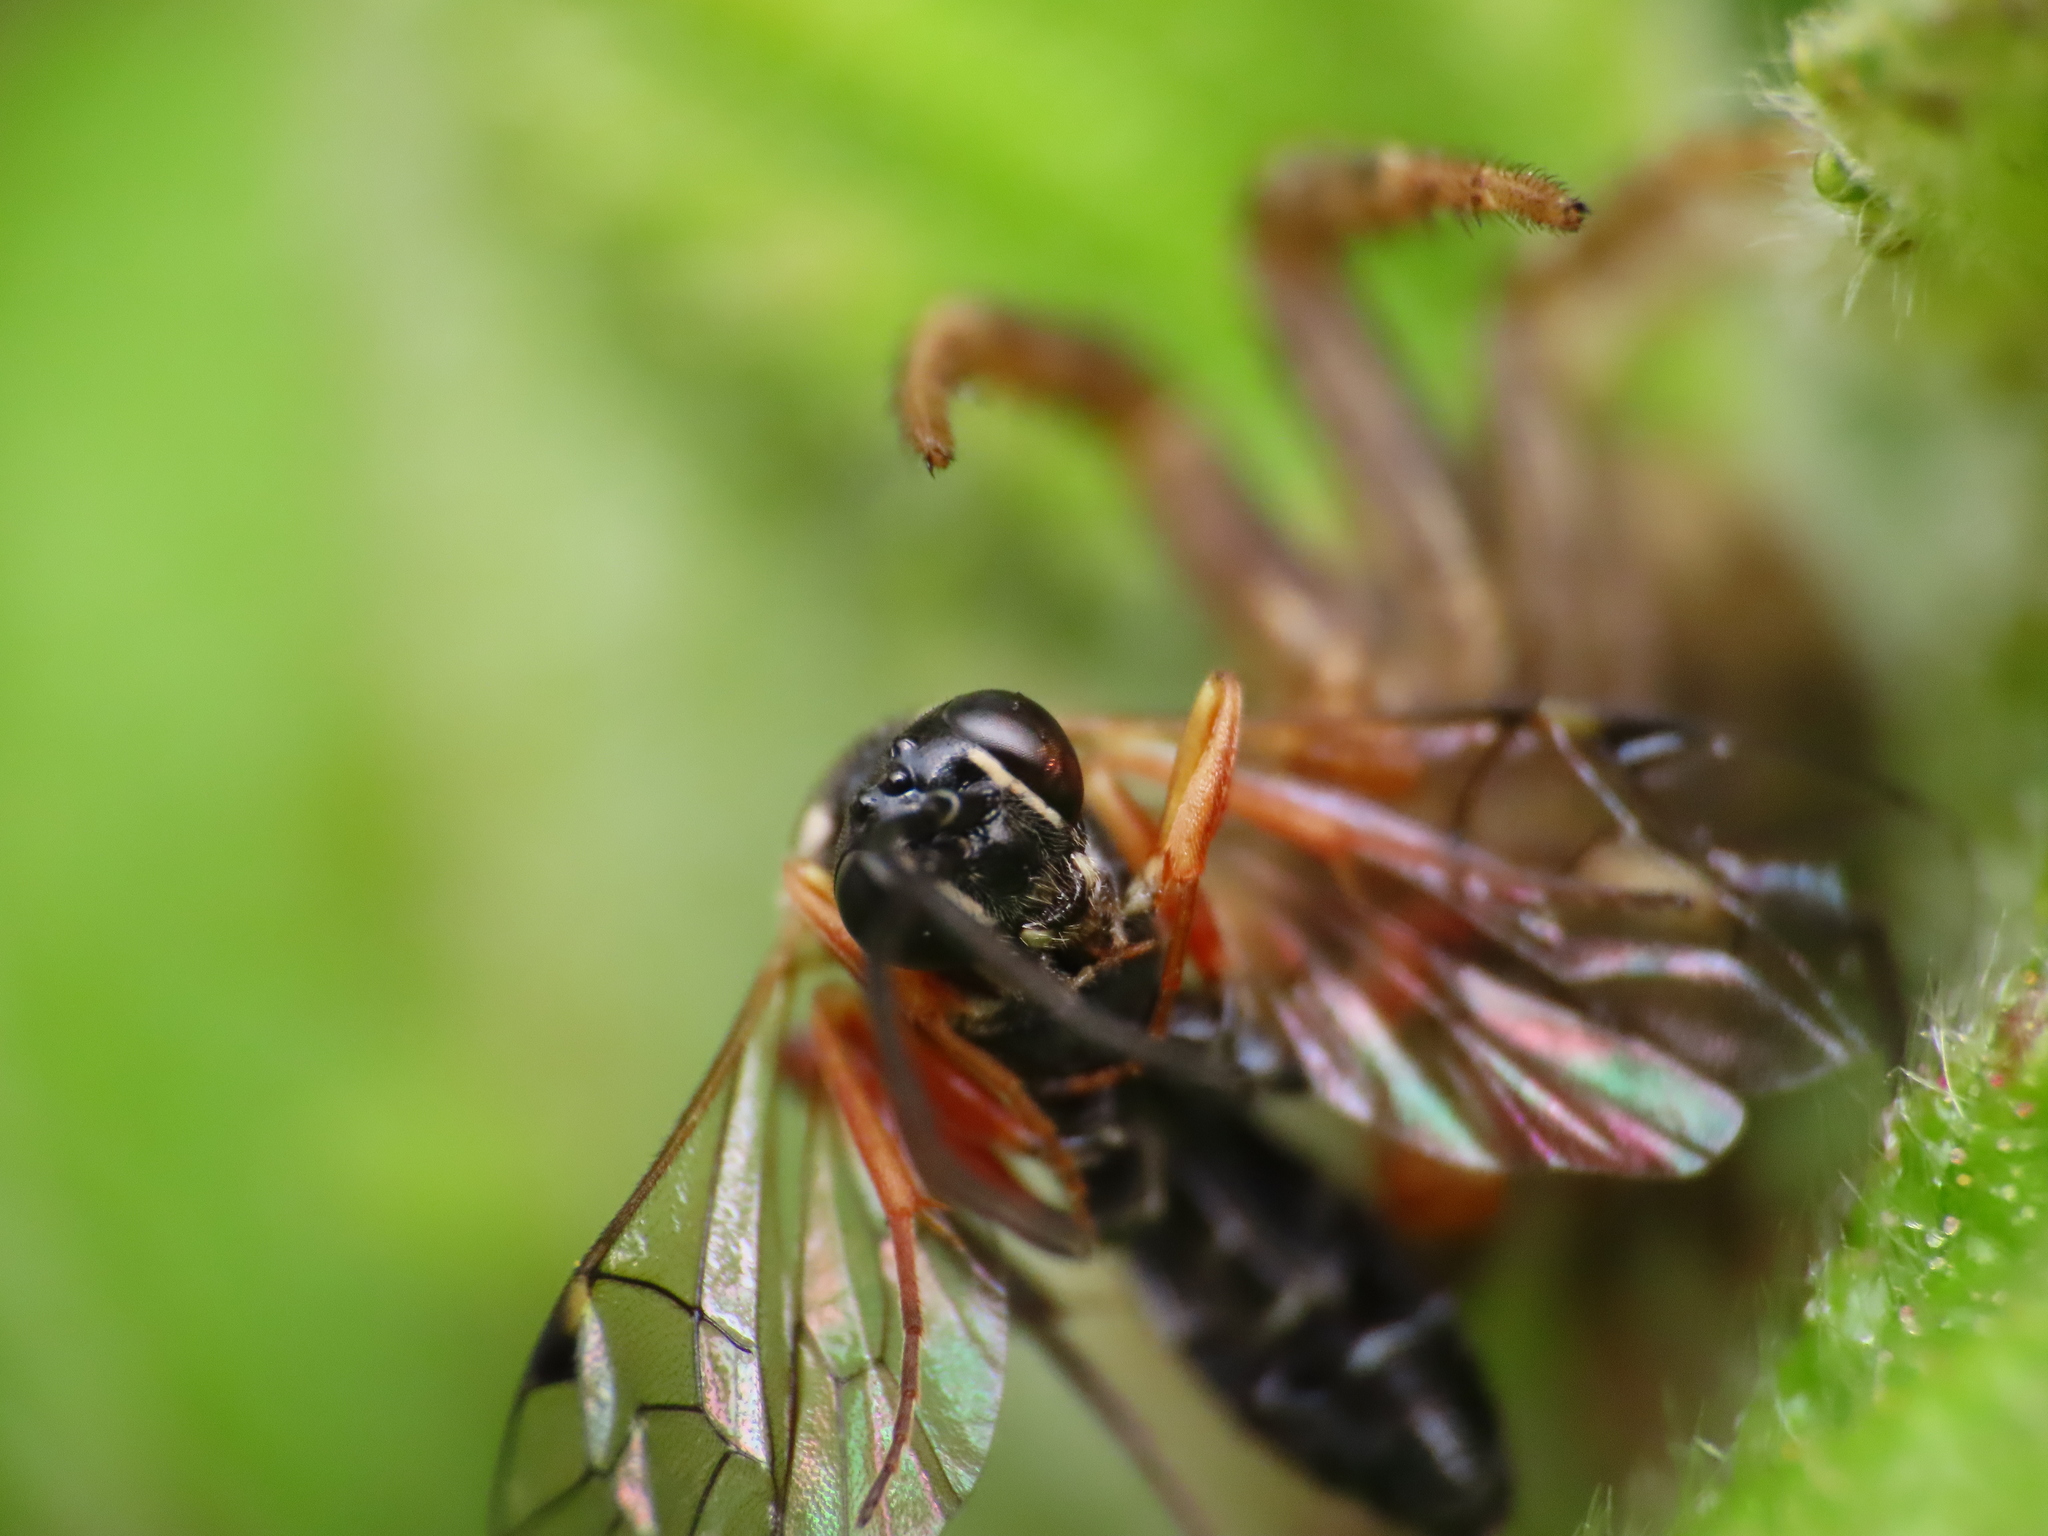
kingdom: Animalia
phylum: Arthropoda
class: Insecta
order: Hymenoptera
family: Ichneumonidae
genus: Diplazon
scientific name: Diplazon laetatorius
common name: Parasitoid wasp
